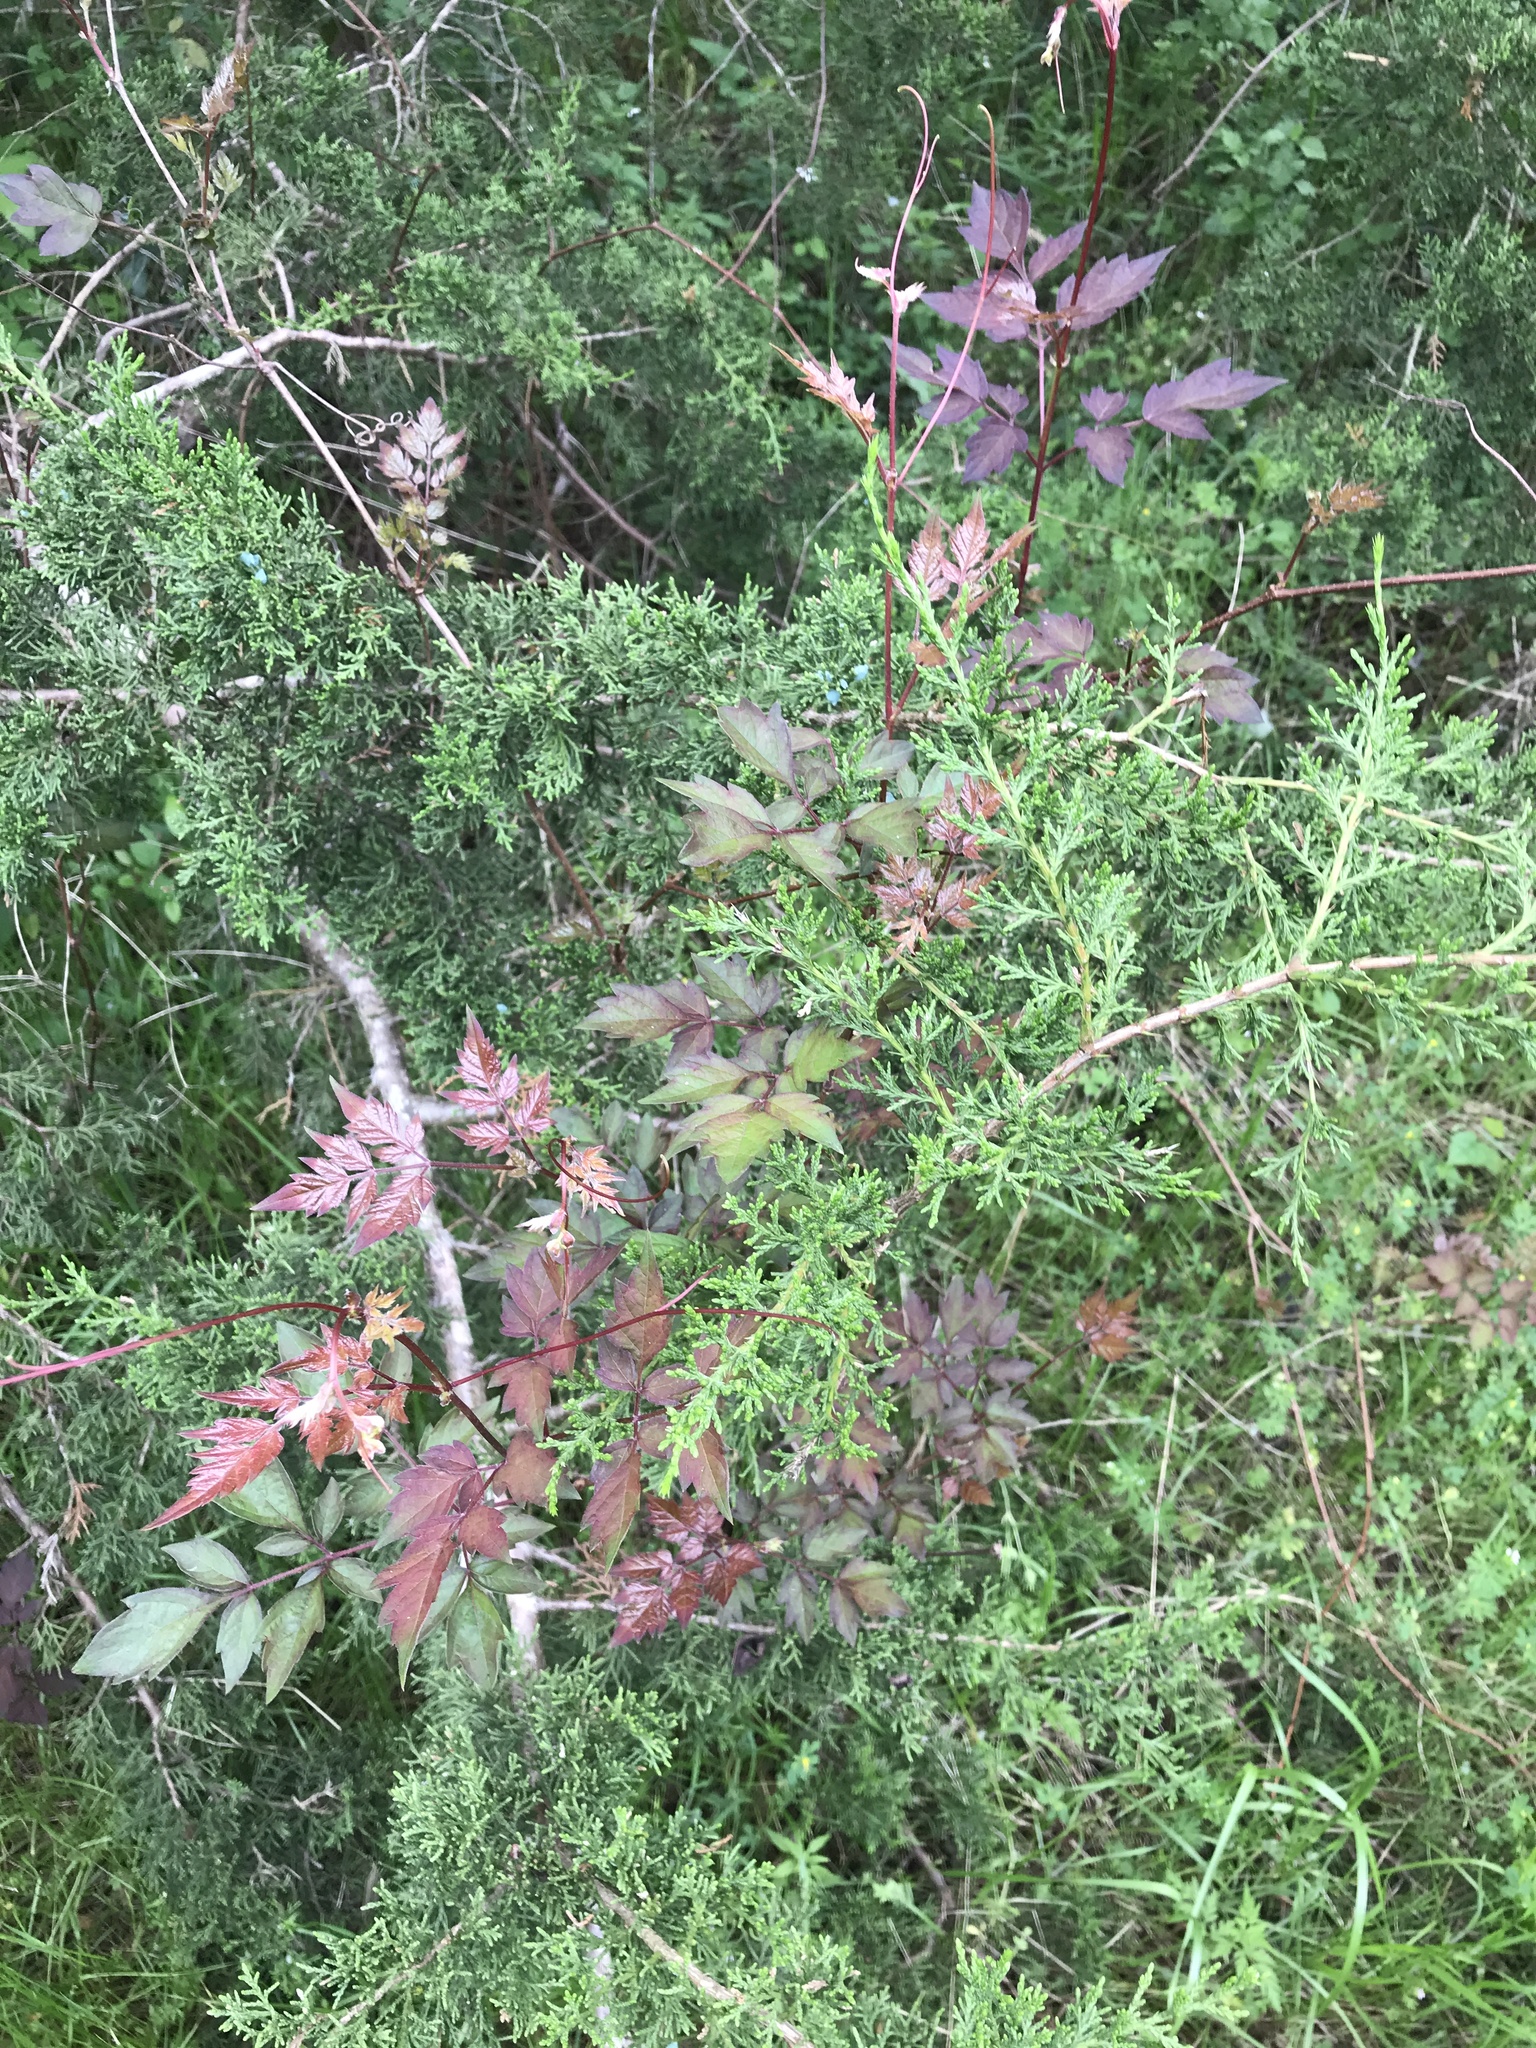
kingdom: Plantae
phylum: Tracheophyta
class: Magnoliopsida
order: Vitales
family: Vitaceae
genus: Nekemias
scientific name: Nekemias arborea
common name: Peppervine
